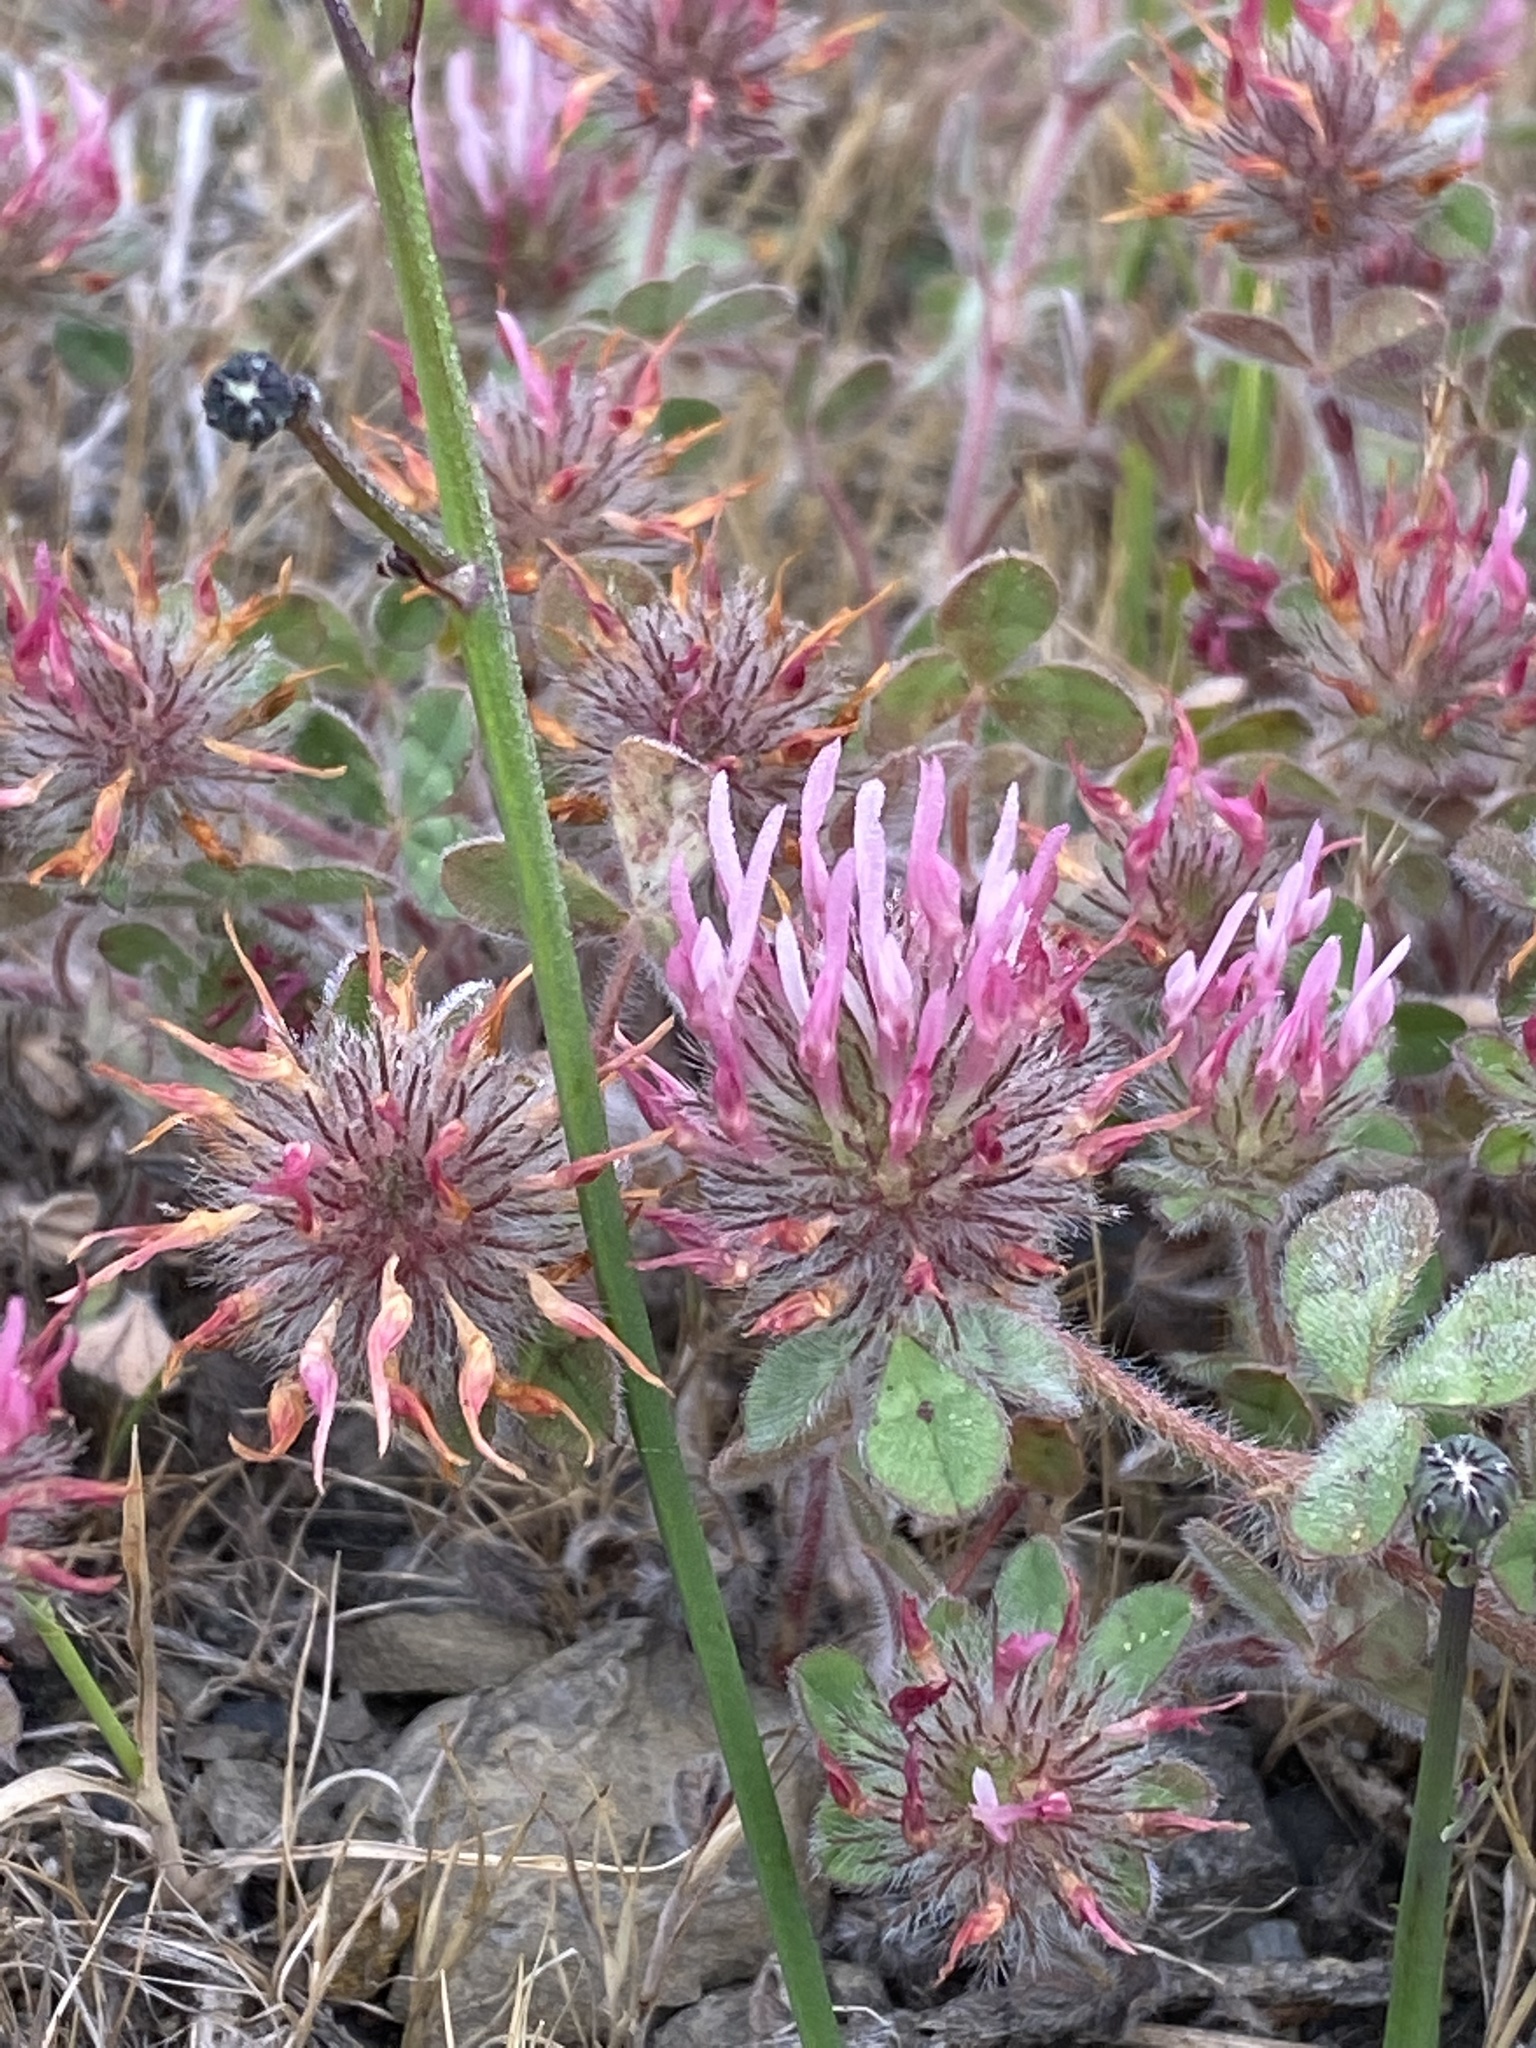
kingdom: Plantae
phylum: Tracheophyta
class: Magnoliopsida
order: Fabales
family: Fabaceae
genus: Trifolium
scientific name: Trifolium hirtum
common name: Rose clover
